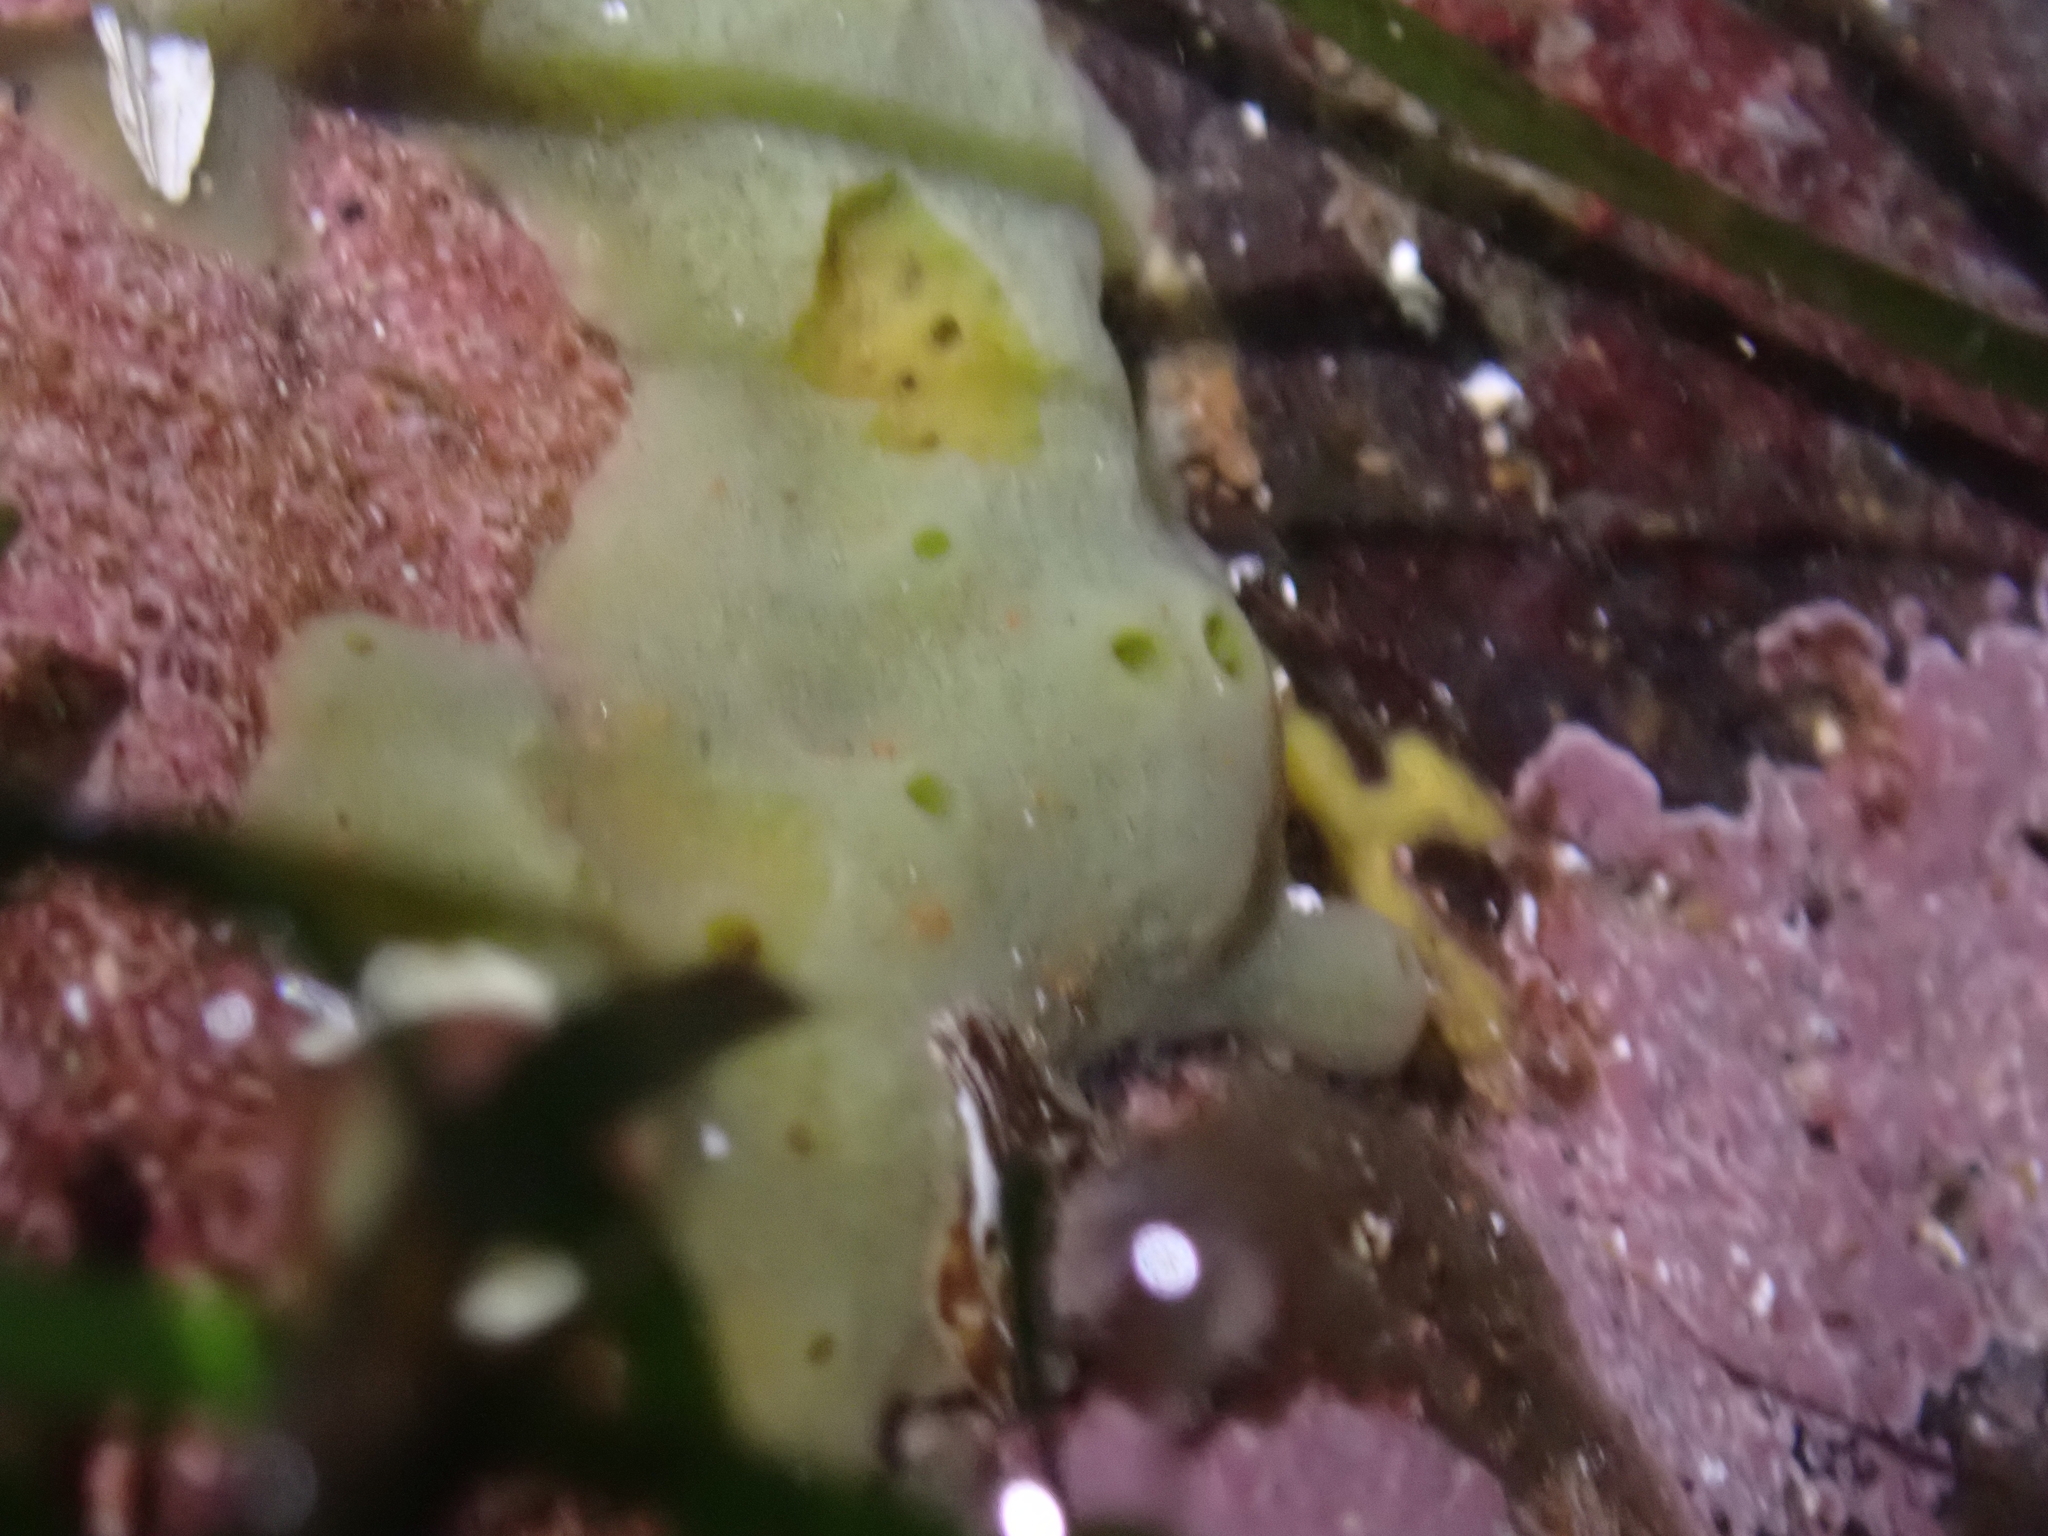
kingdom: Animalia
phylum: Porifera
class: Demospongiae
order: Suberitida
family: Halichondriidae
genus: Halichondria
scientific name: Halichondria panicea
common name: Breadcrumb sponge
